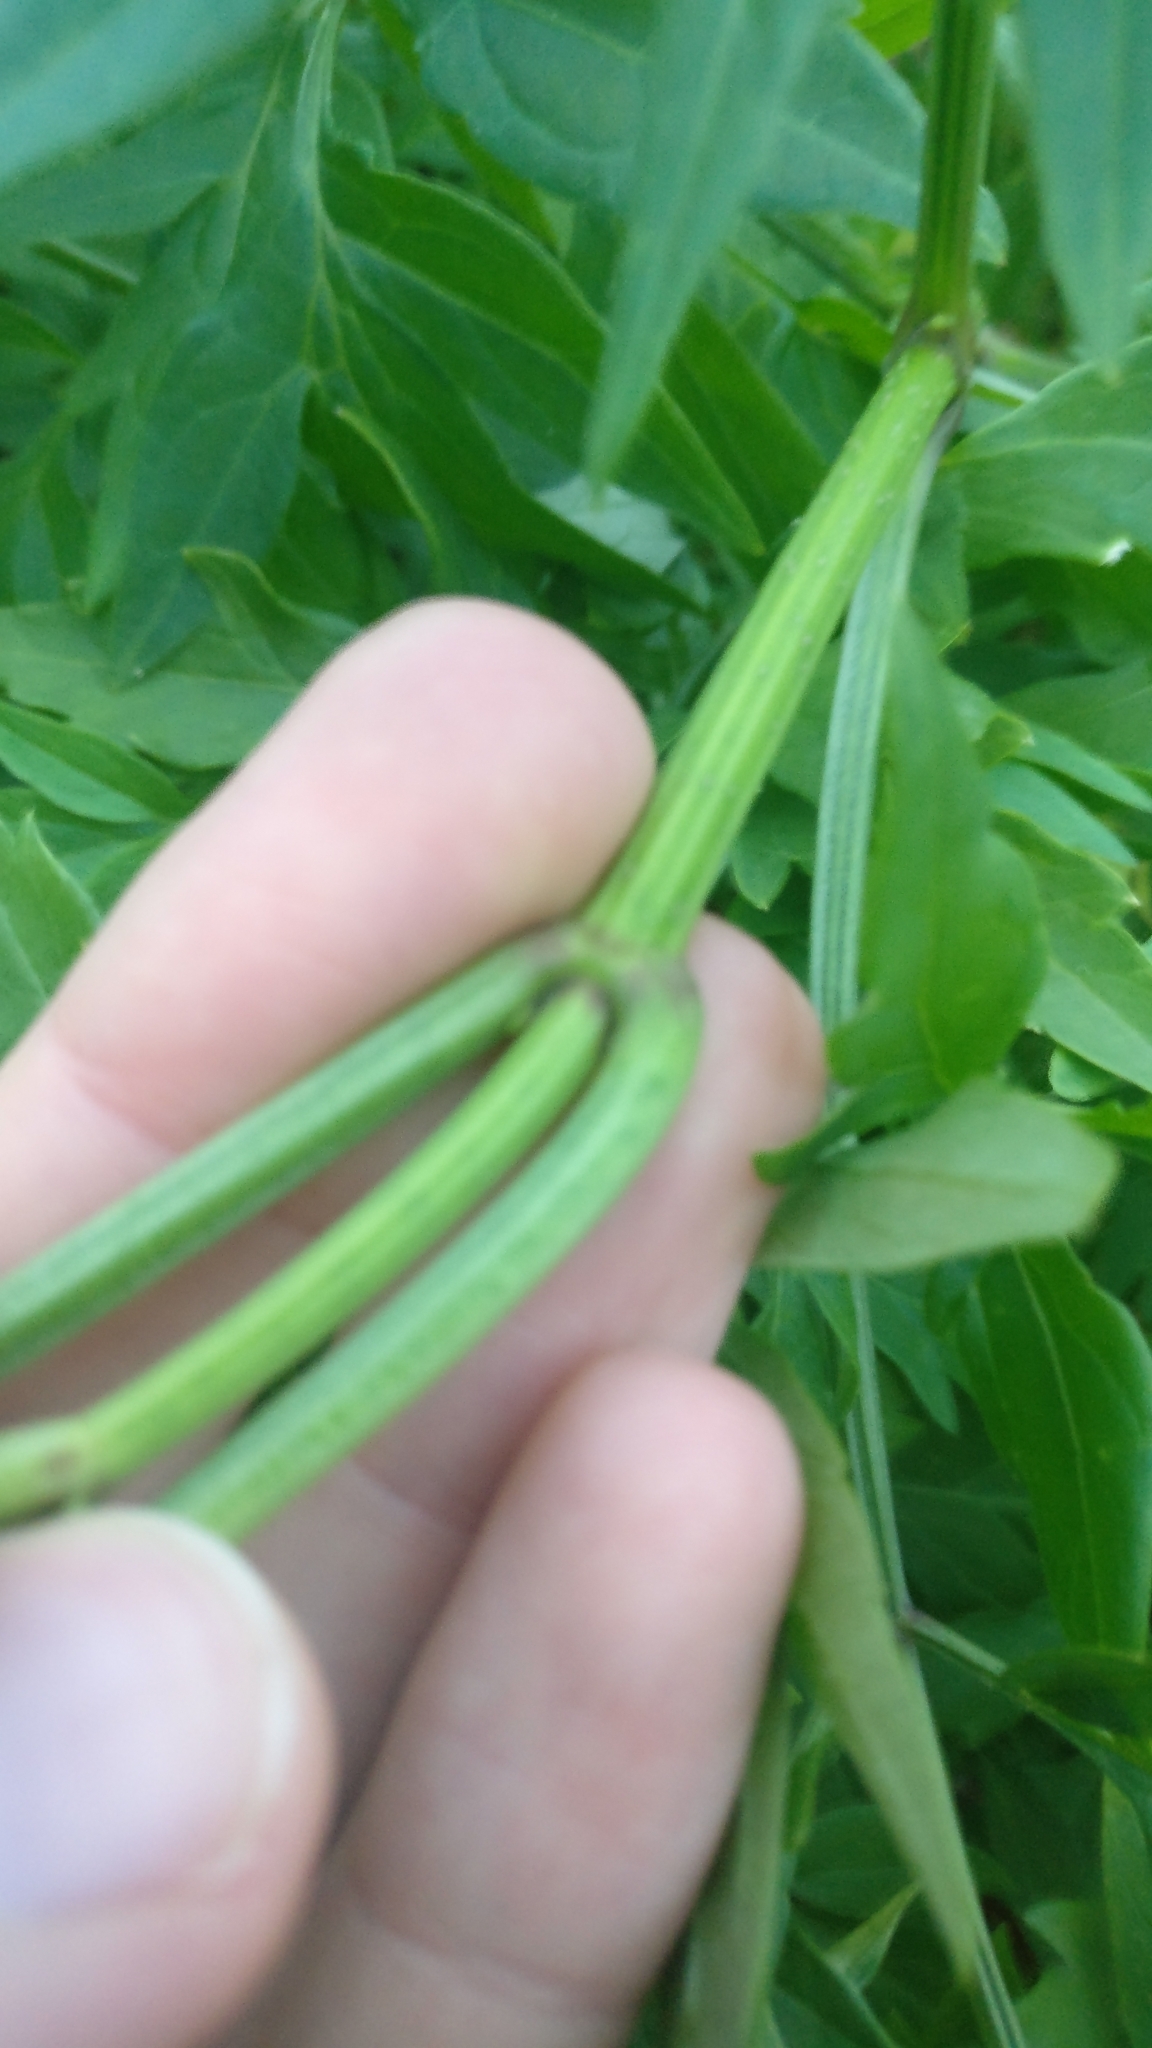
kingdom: Plantae
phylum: Tracheophyta
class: Magnoliopsida
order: Dipsacales
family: Viburnaceae
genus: Sambucus
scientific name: Sambucus nigra
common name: Elder
